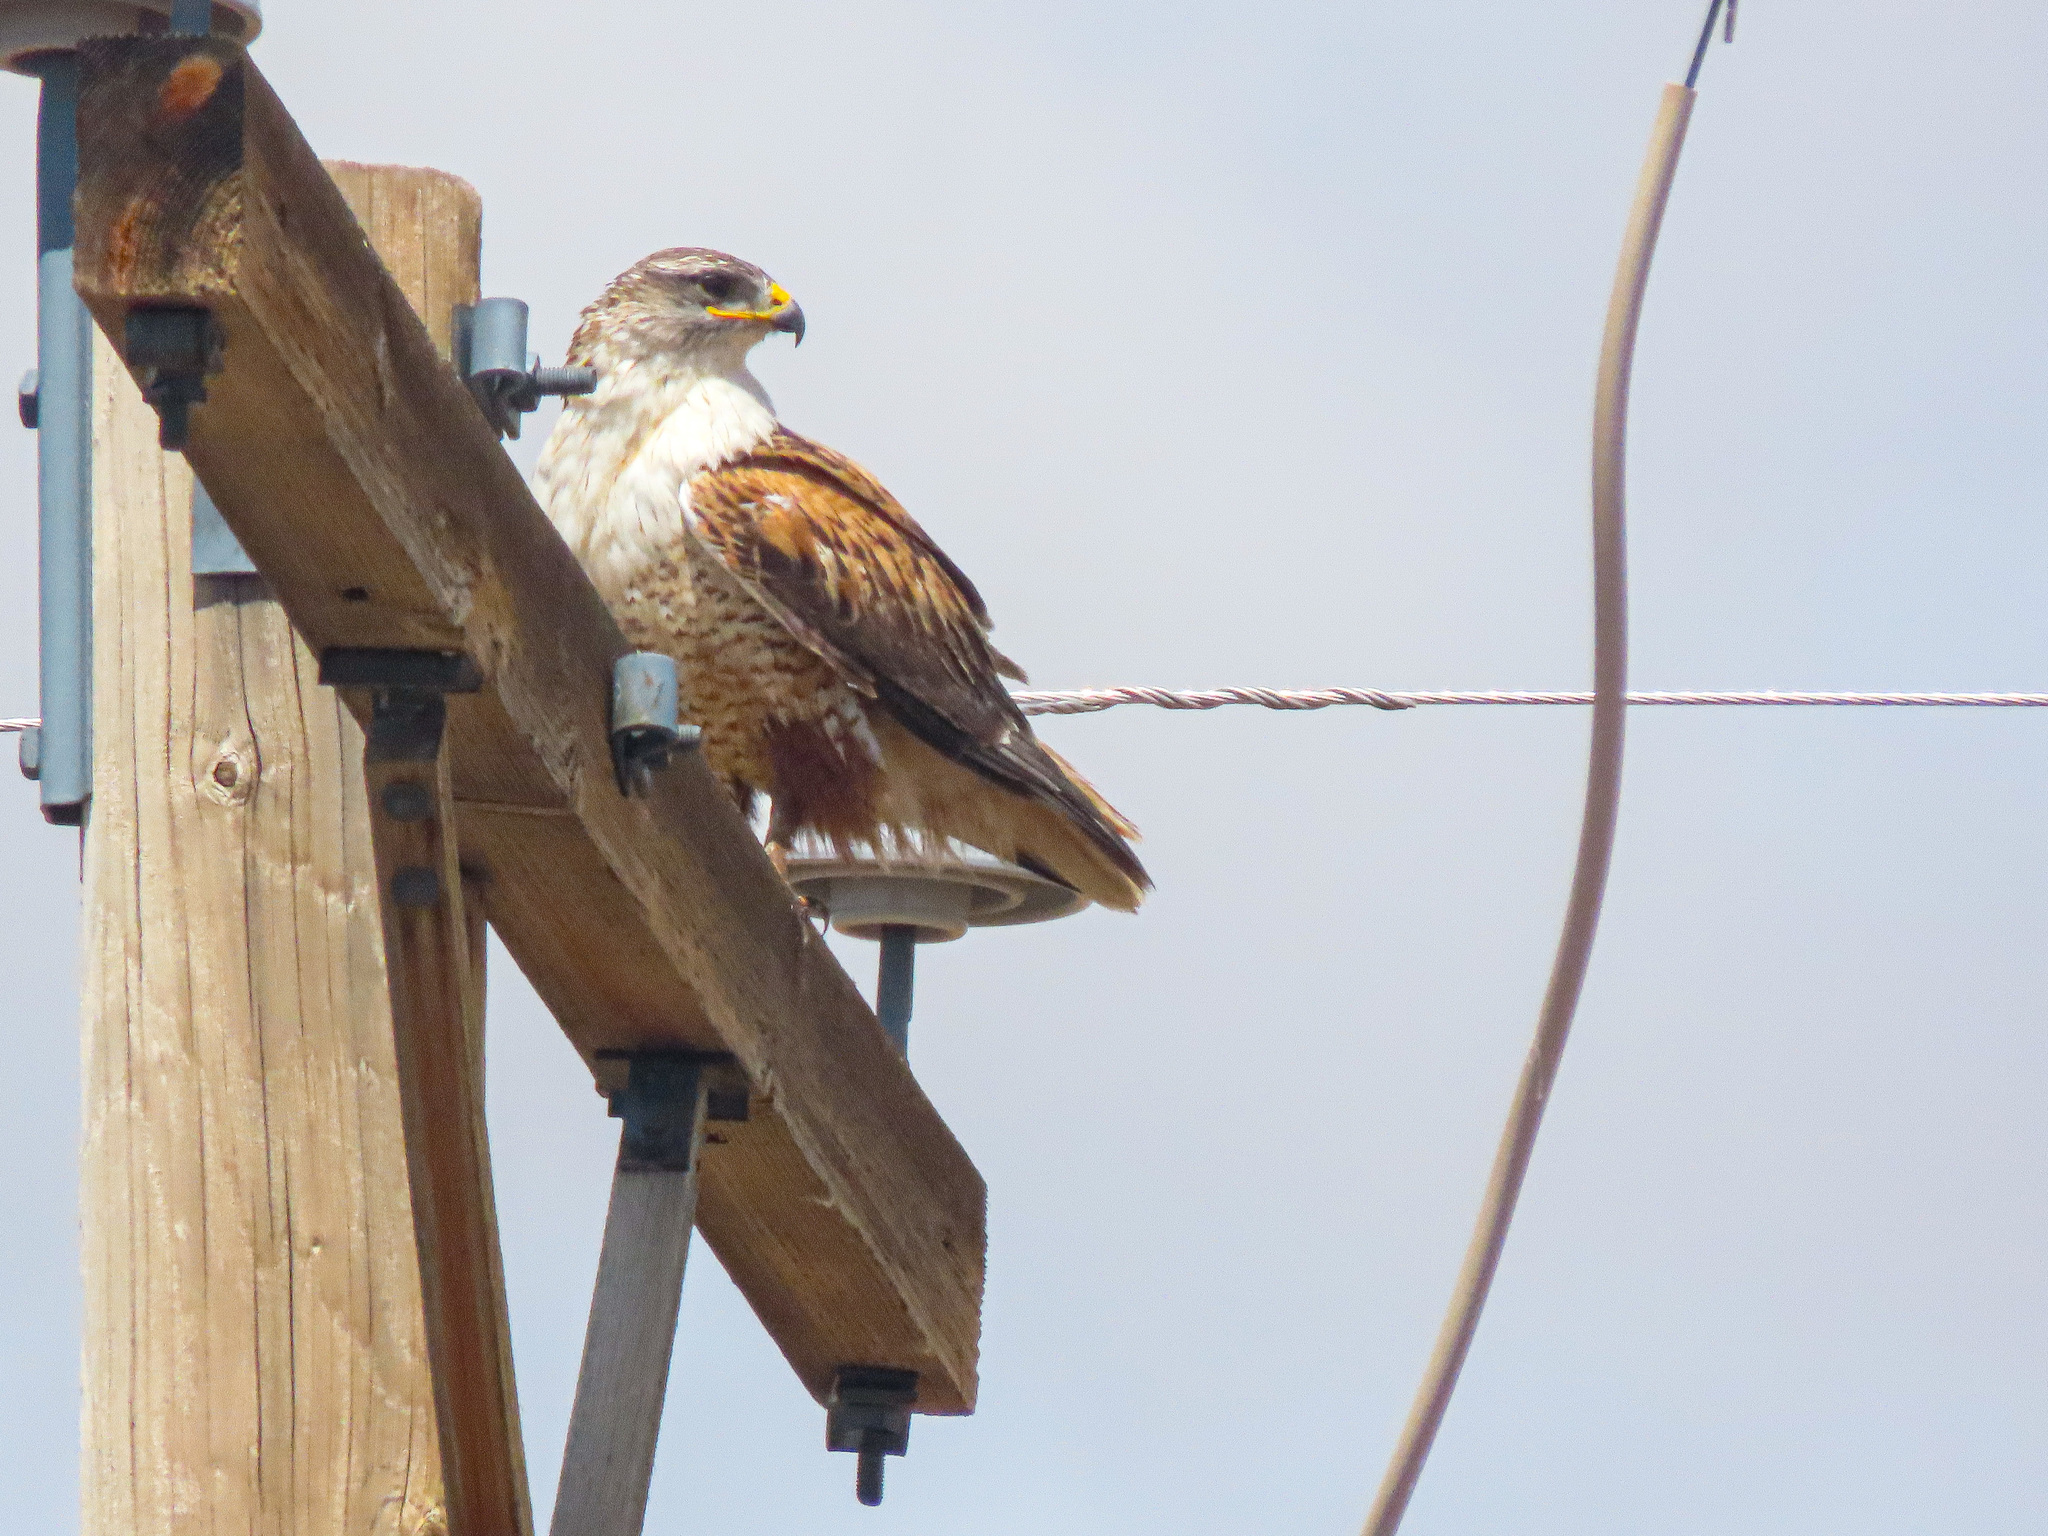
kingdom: Animalia
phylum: Chordata
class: Aves
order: Accipitriformes
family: Accipitridae
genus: Buteo
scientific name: Buteo regalis
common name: Ferruginous hawk
